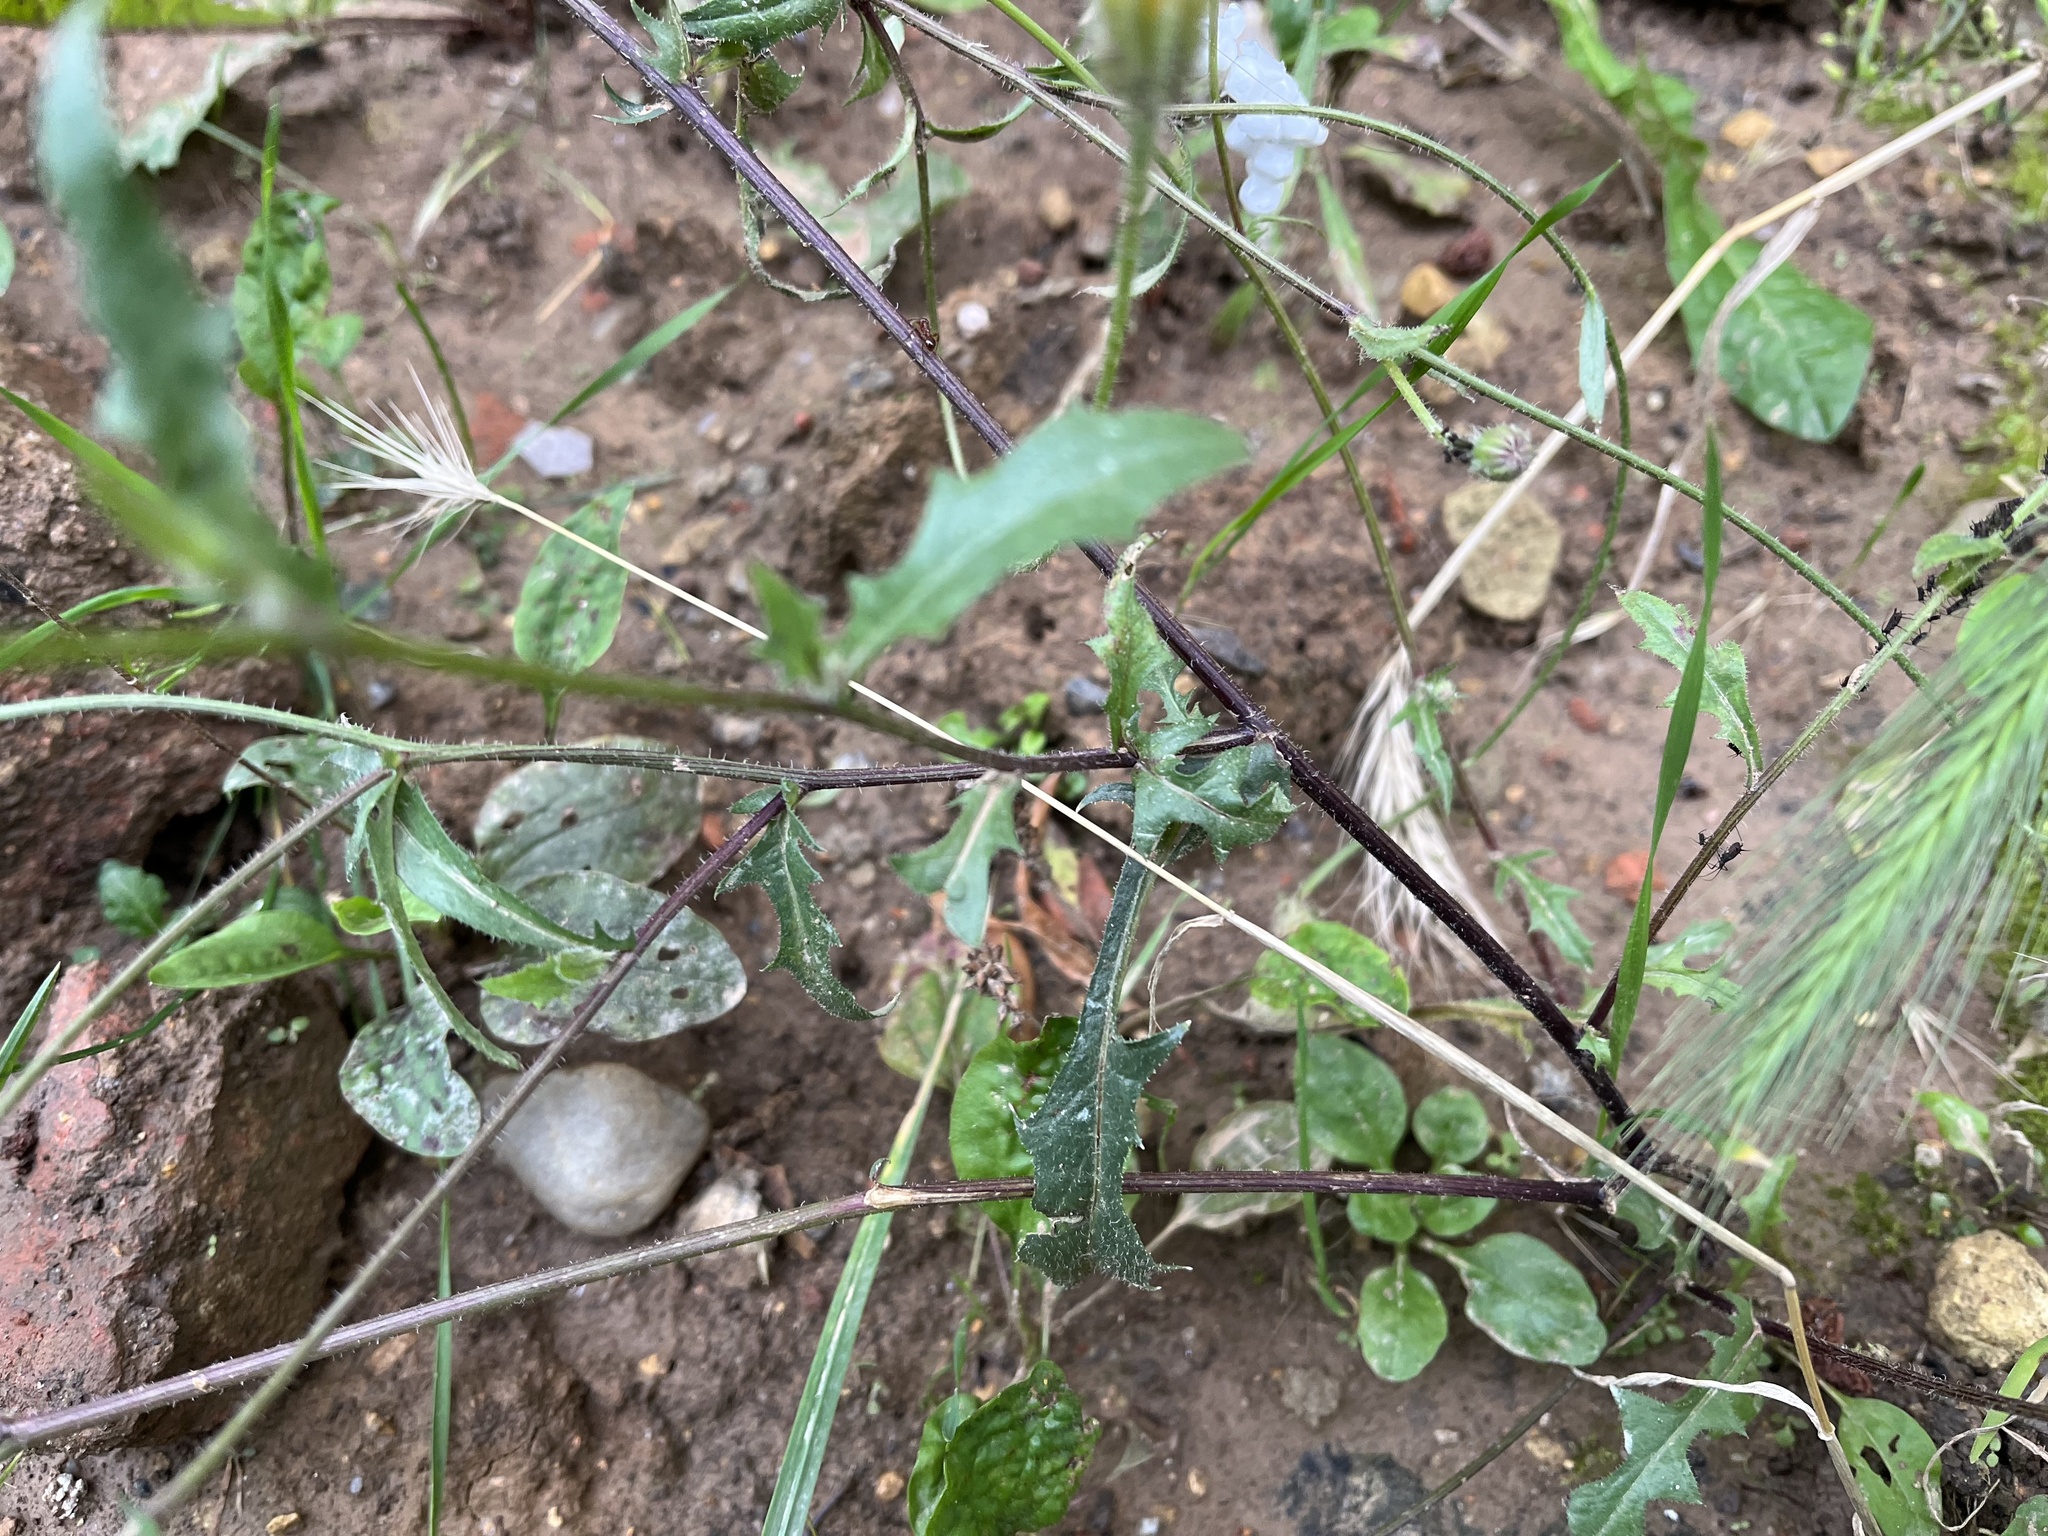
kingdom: Plantae
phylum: Tracheophyta
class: Magnoliopsida
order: Asterales
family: Asteraceae
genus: Crepis
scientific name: Crepis foetida
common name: Stinking hawk's-beard
